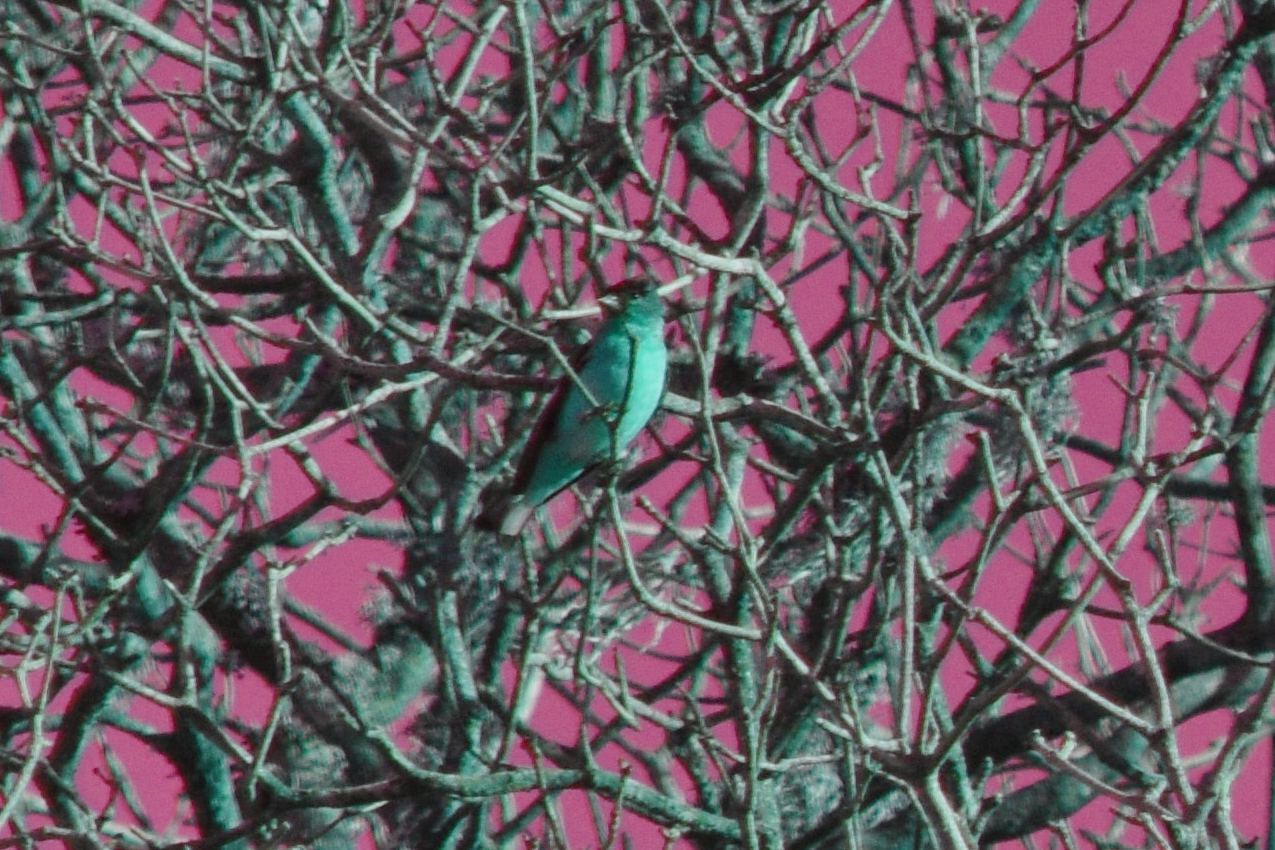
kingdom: Animalia
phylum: Chordata
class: Aves
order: Passeriformes
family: Fringillidae
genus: Spinus
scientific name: Spinus psaltria
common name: Lesser goldfinch
